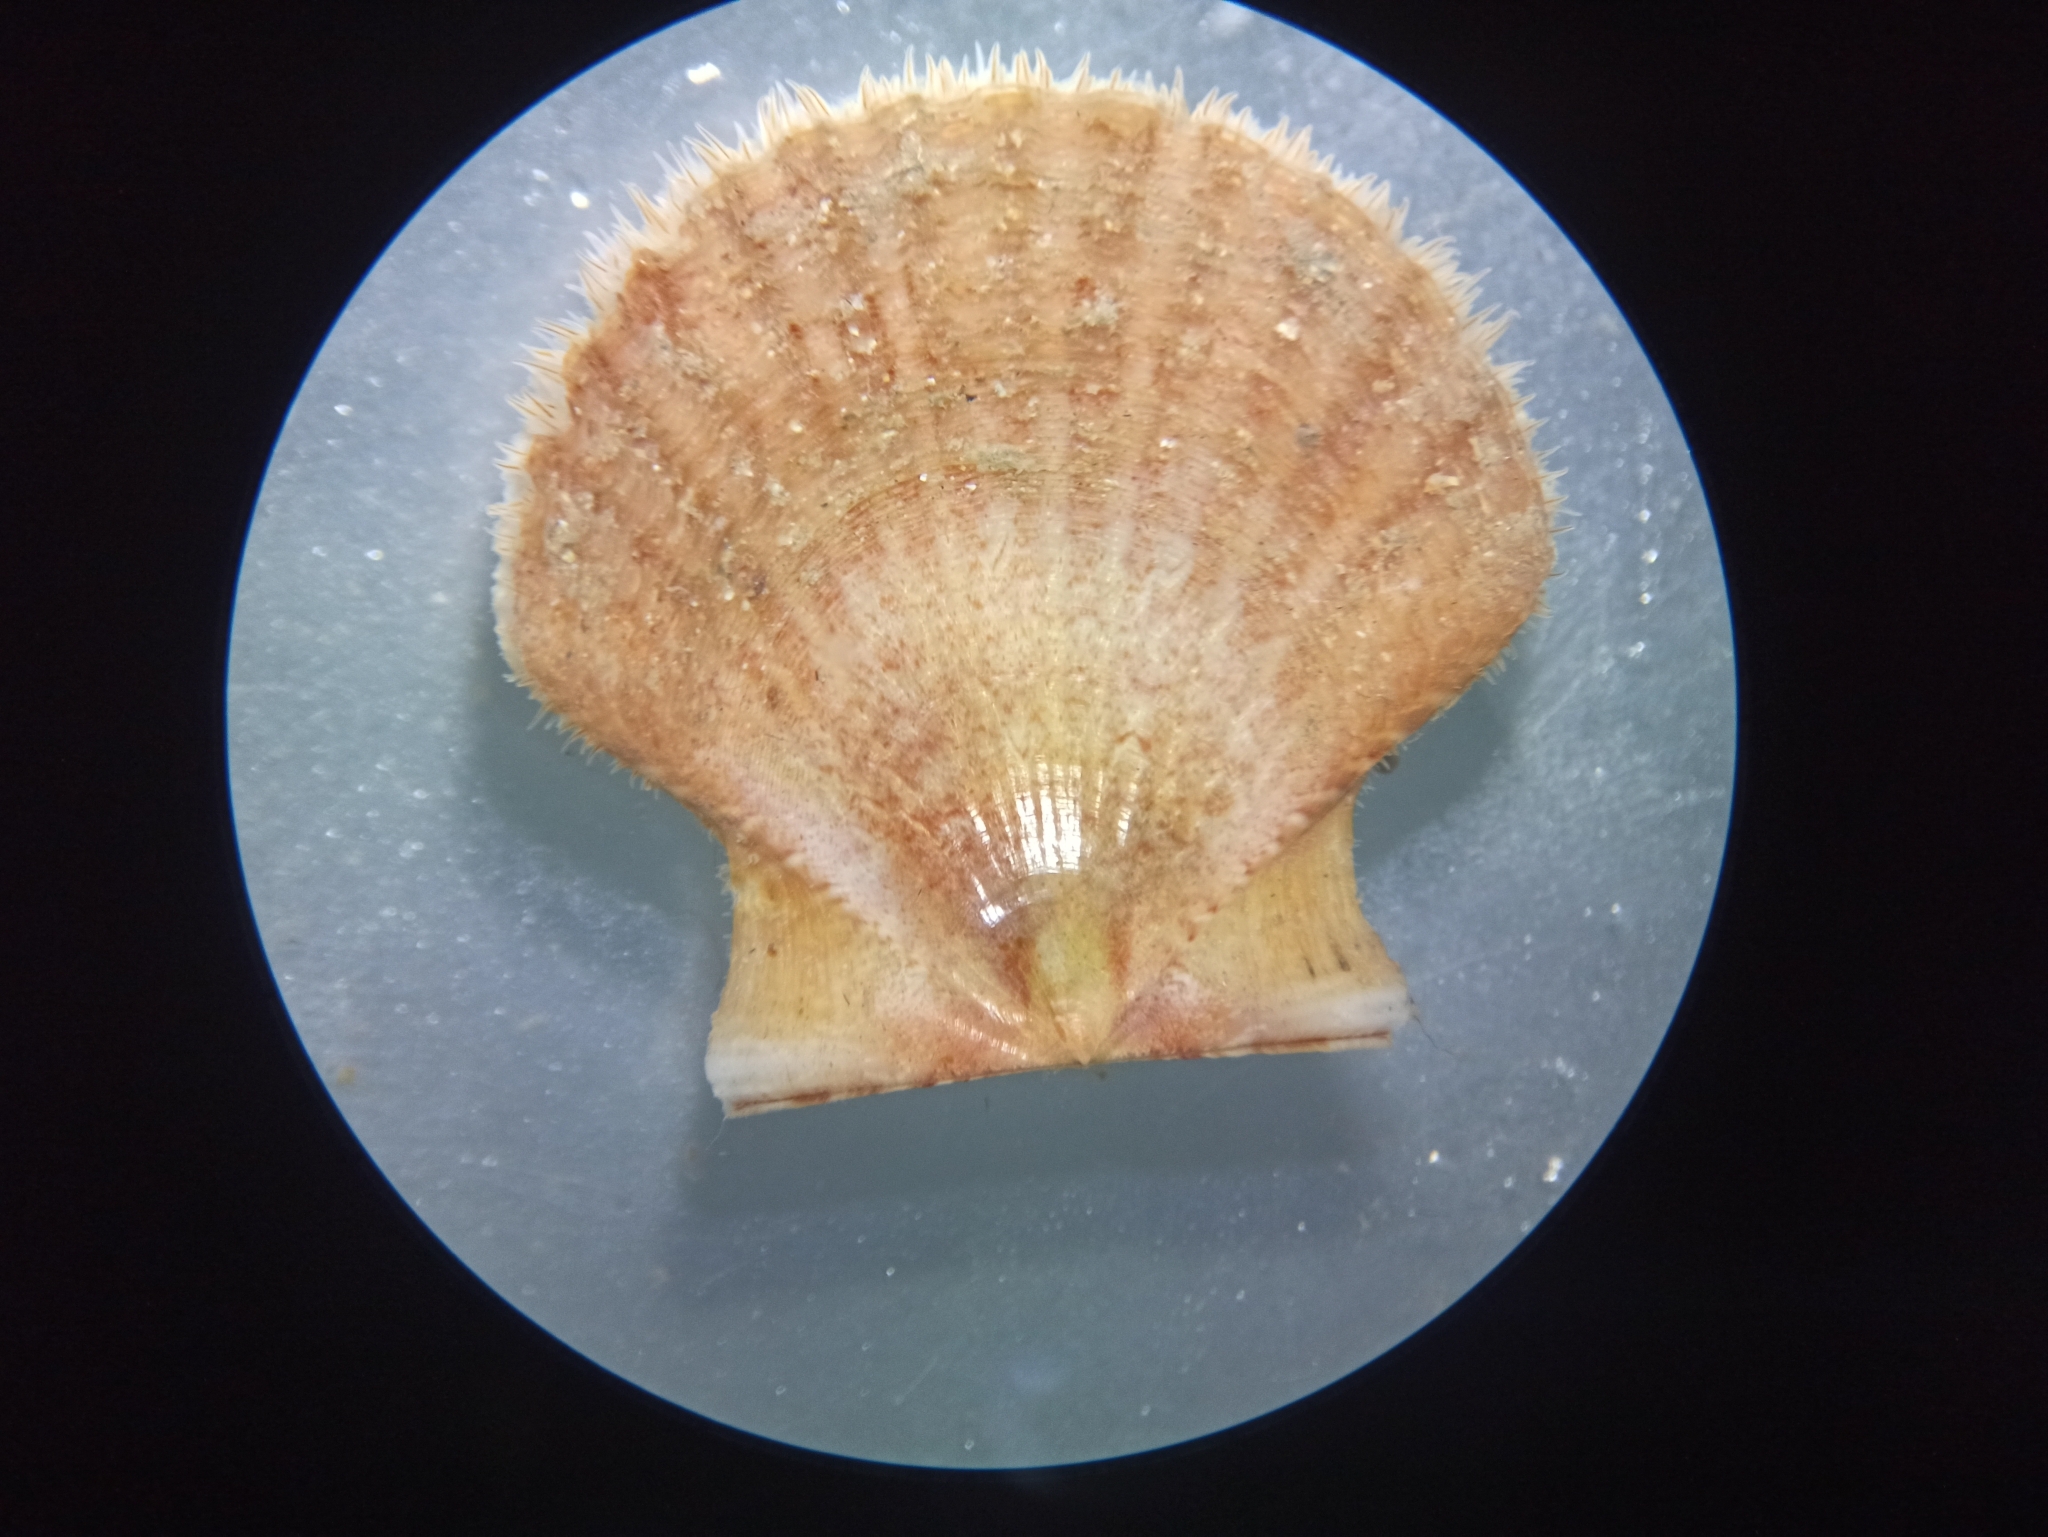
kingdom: Animalia
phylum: Mollusca
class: Bivalvia
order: Pectinida
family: Pectinidae
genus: Pecten
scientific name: Pecten jacobaeus
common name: St.james's scallop
